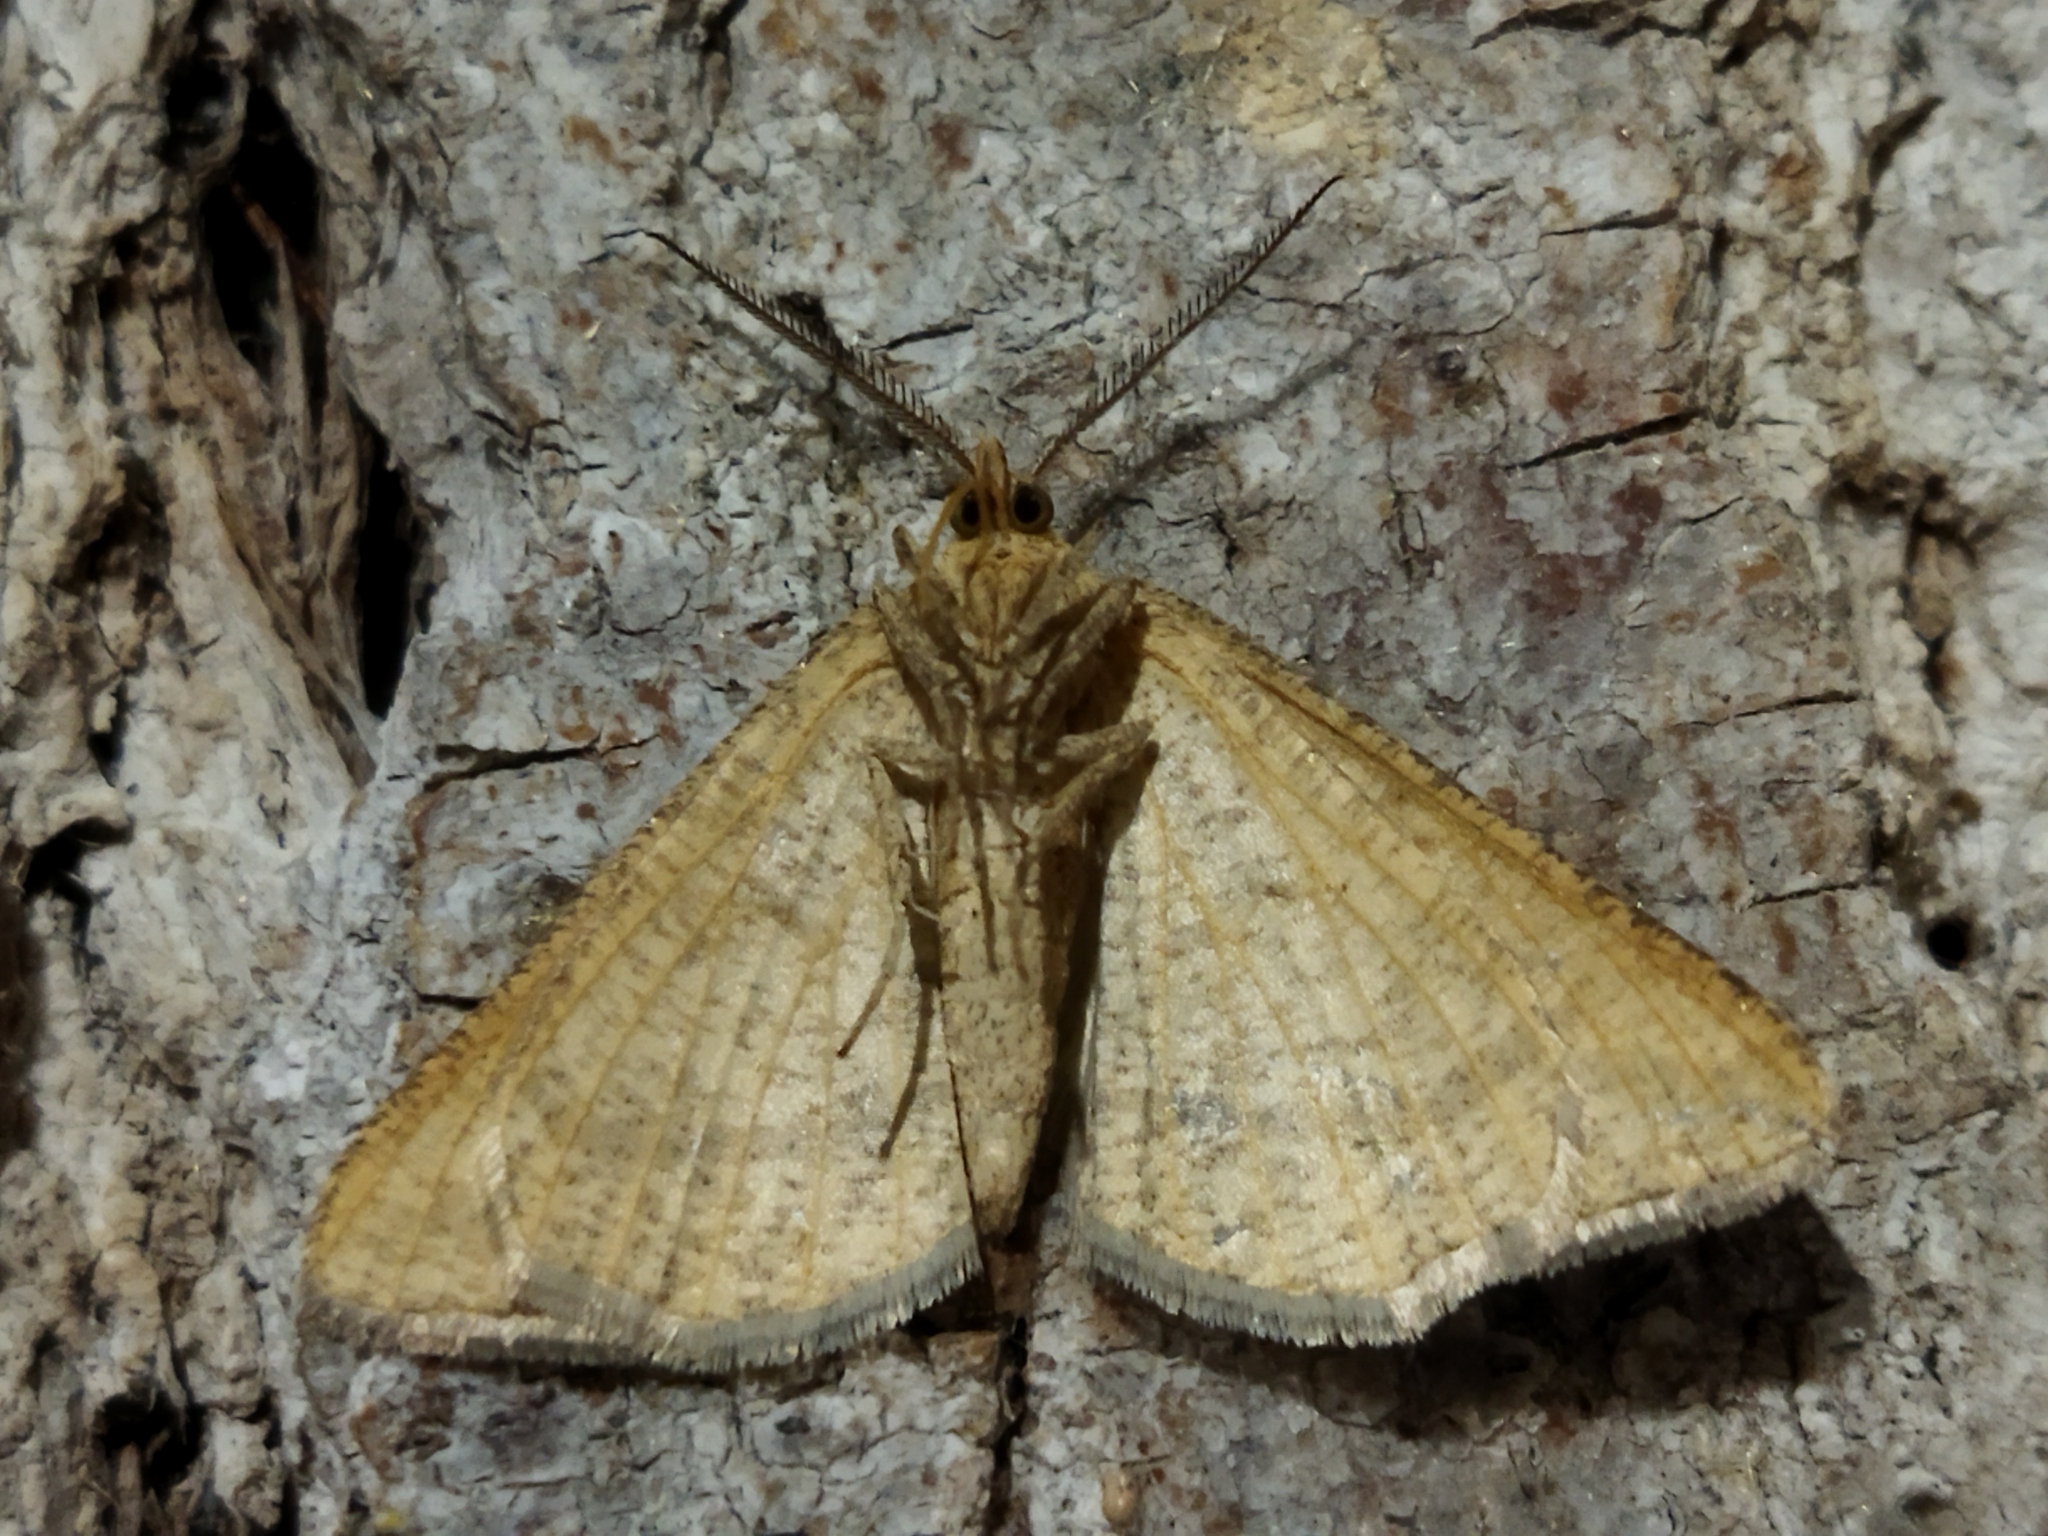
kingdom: Animalia
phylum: Arthropoda
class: Insecta
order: Lepidoptera
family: Geometridae
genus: Tephrina
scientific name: Tephrina arenacearia
